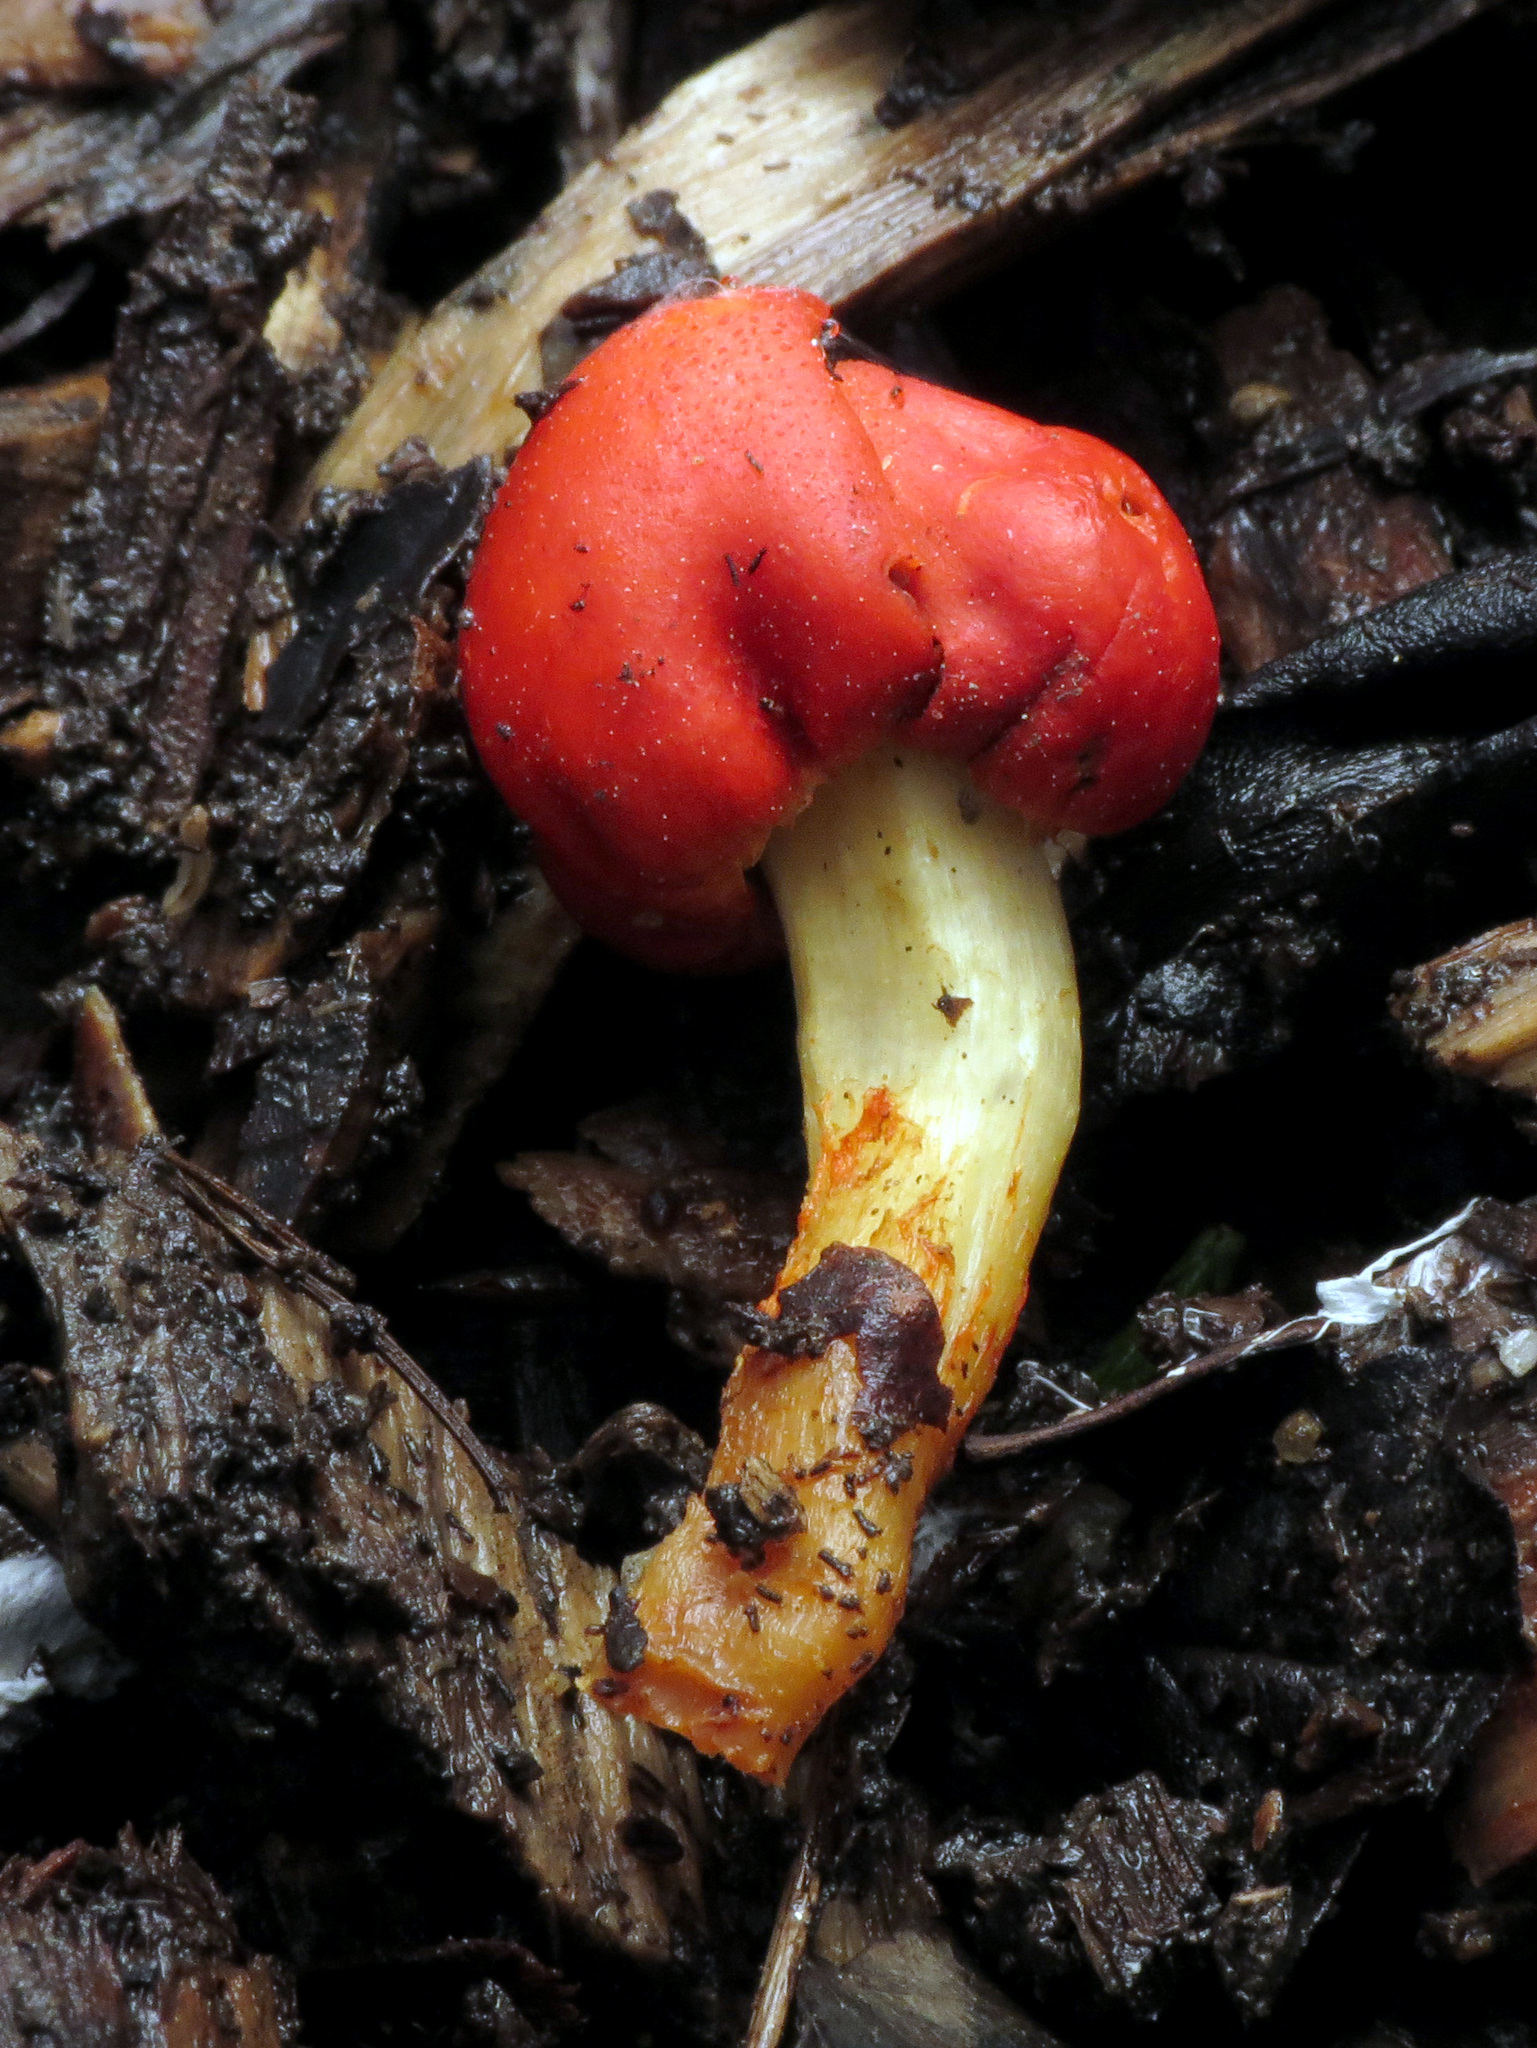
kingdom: Fungi
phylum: Basidiomycota
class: Agaricomycetes
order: Agaricales
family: Strophariaceae
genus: Leratiomyces
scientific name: Leratiomyces erythrocephalus
